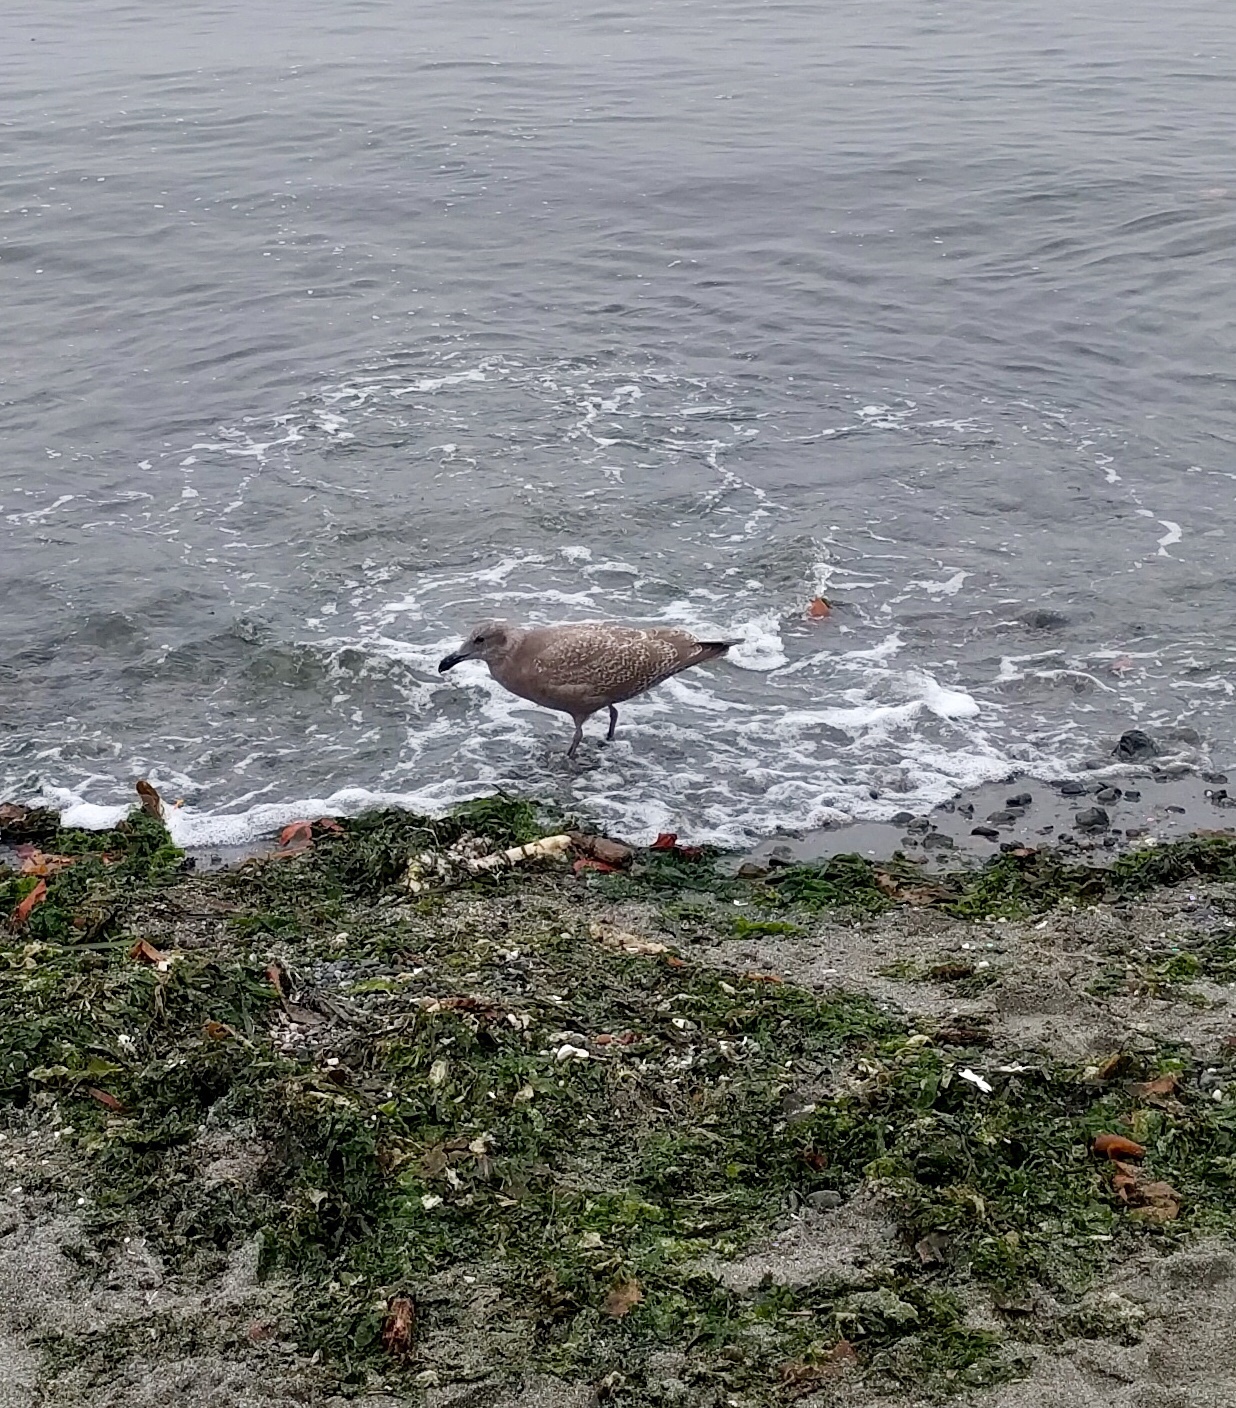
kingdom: Animalia
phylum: Chordata
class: Aves
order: Charadriiformes
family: Laridae
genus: Larus
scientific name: Larus
